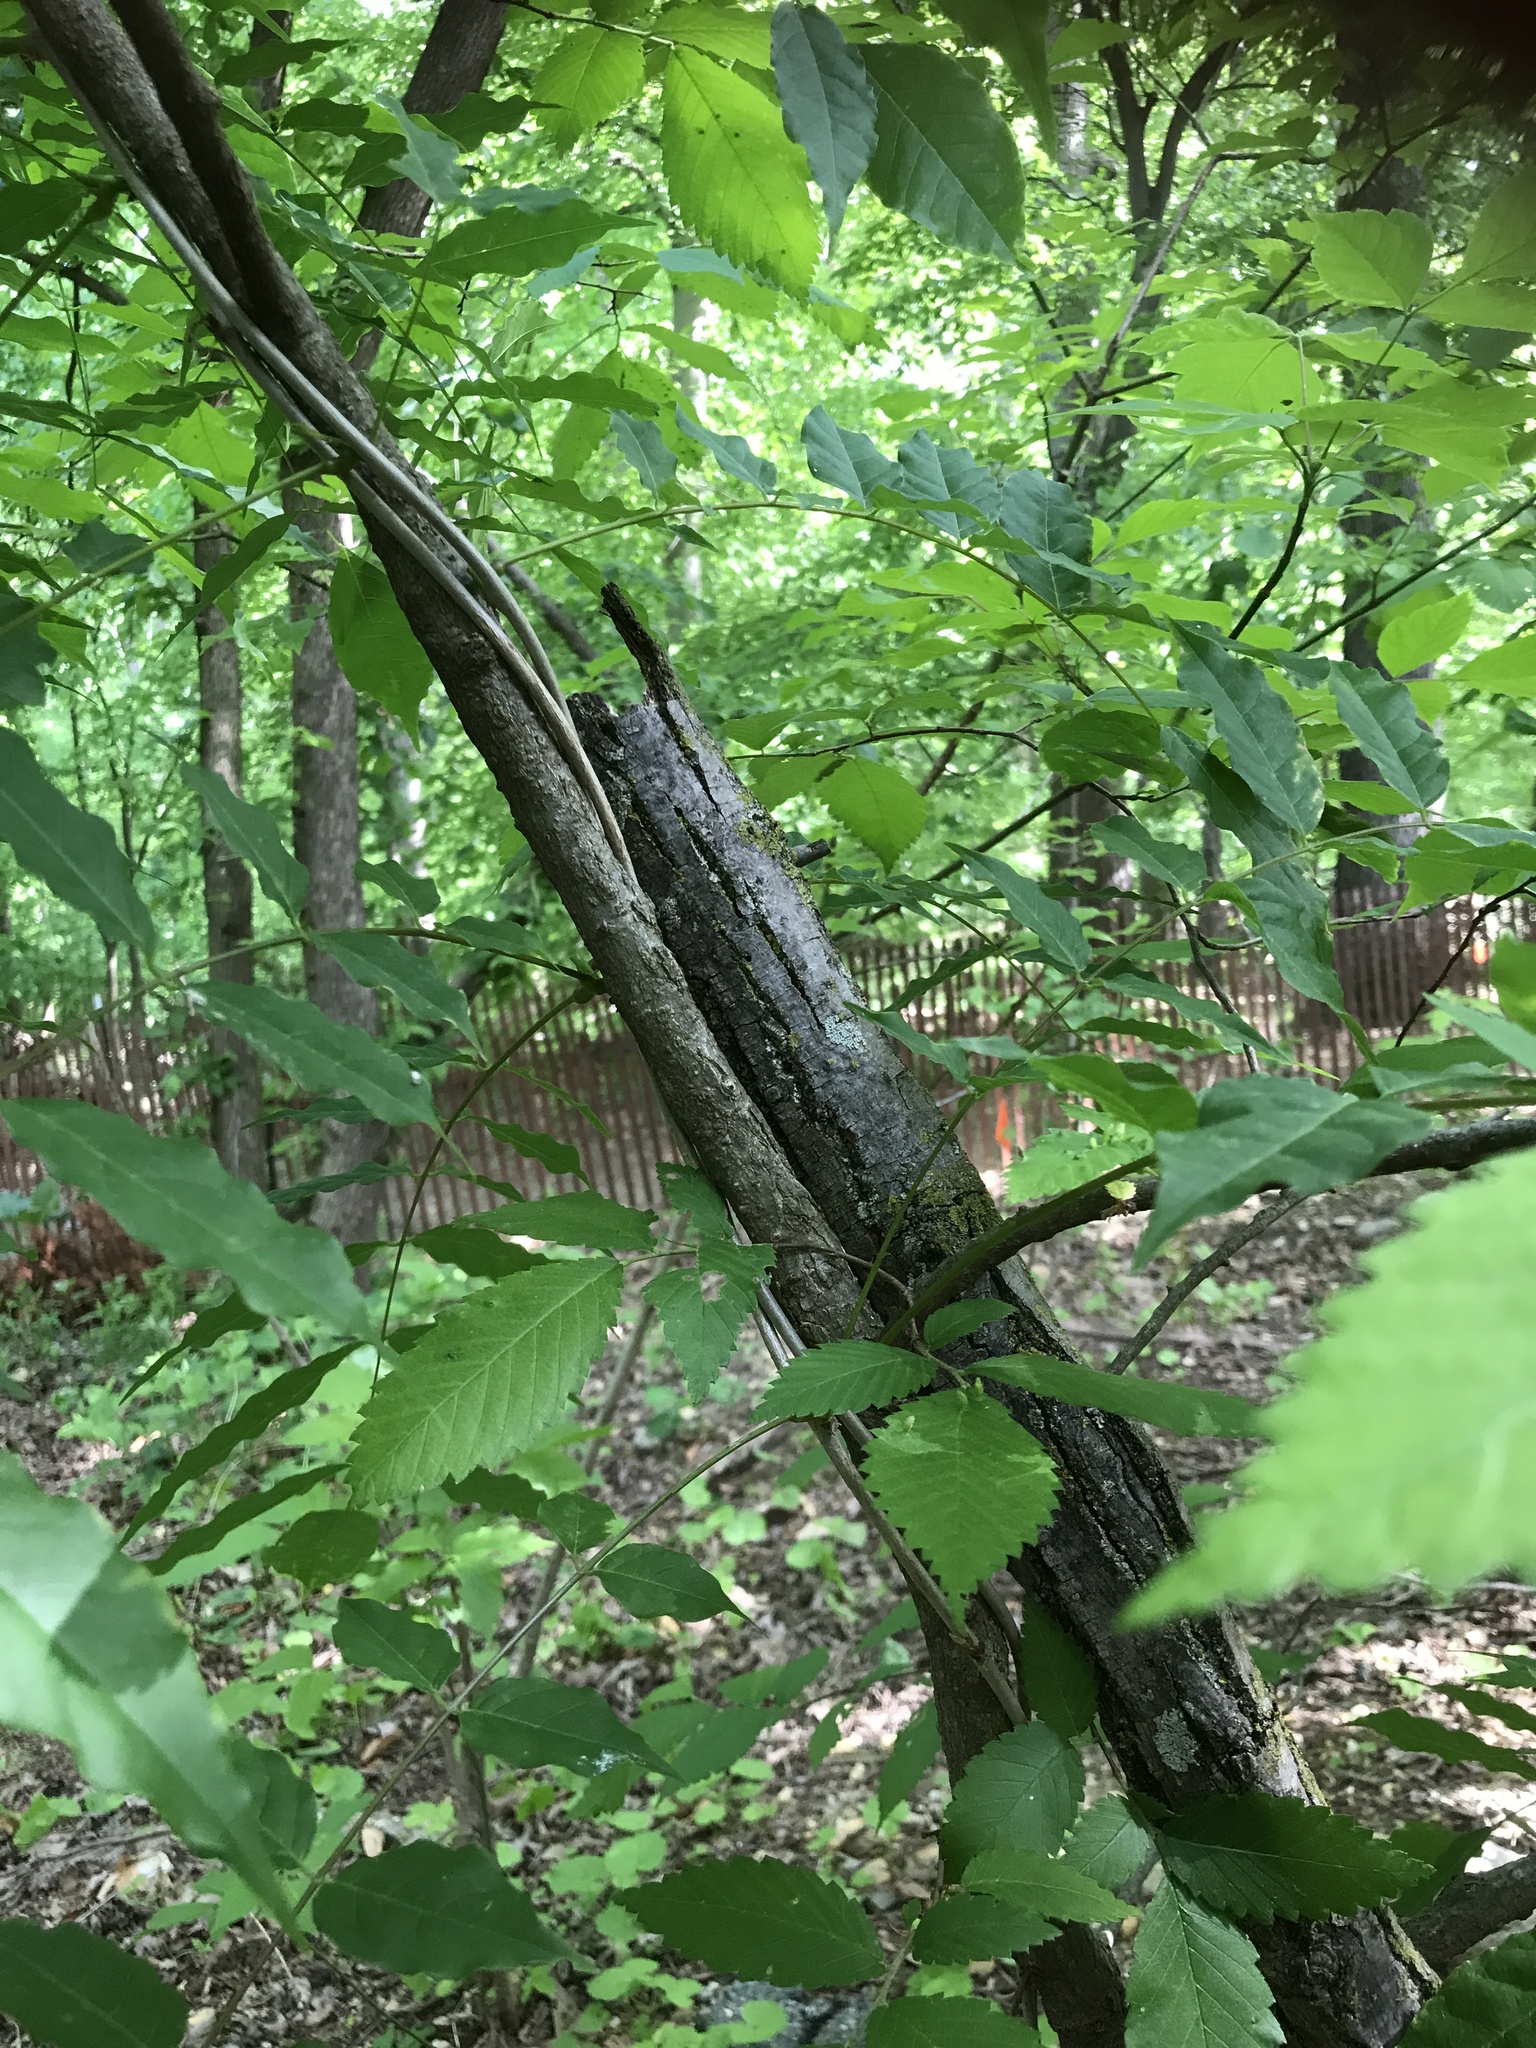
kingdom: Plantae
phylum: Tracheophyta
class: Magnoliopsida
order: Fabales
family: Fabaceae
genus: Wisteria
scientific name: Wisteria floribunda
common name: Japanese wisteria
